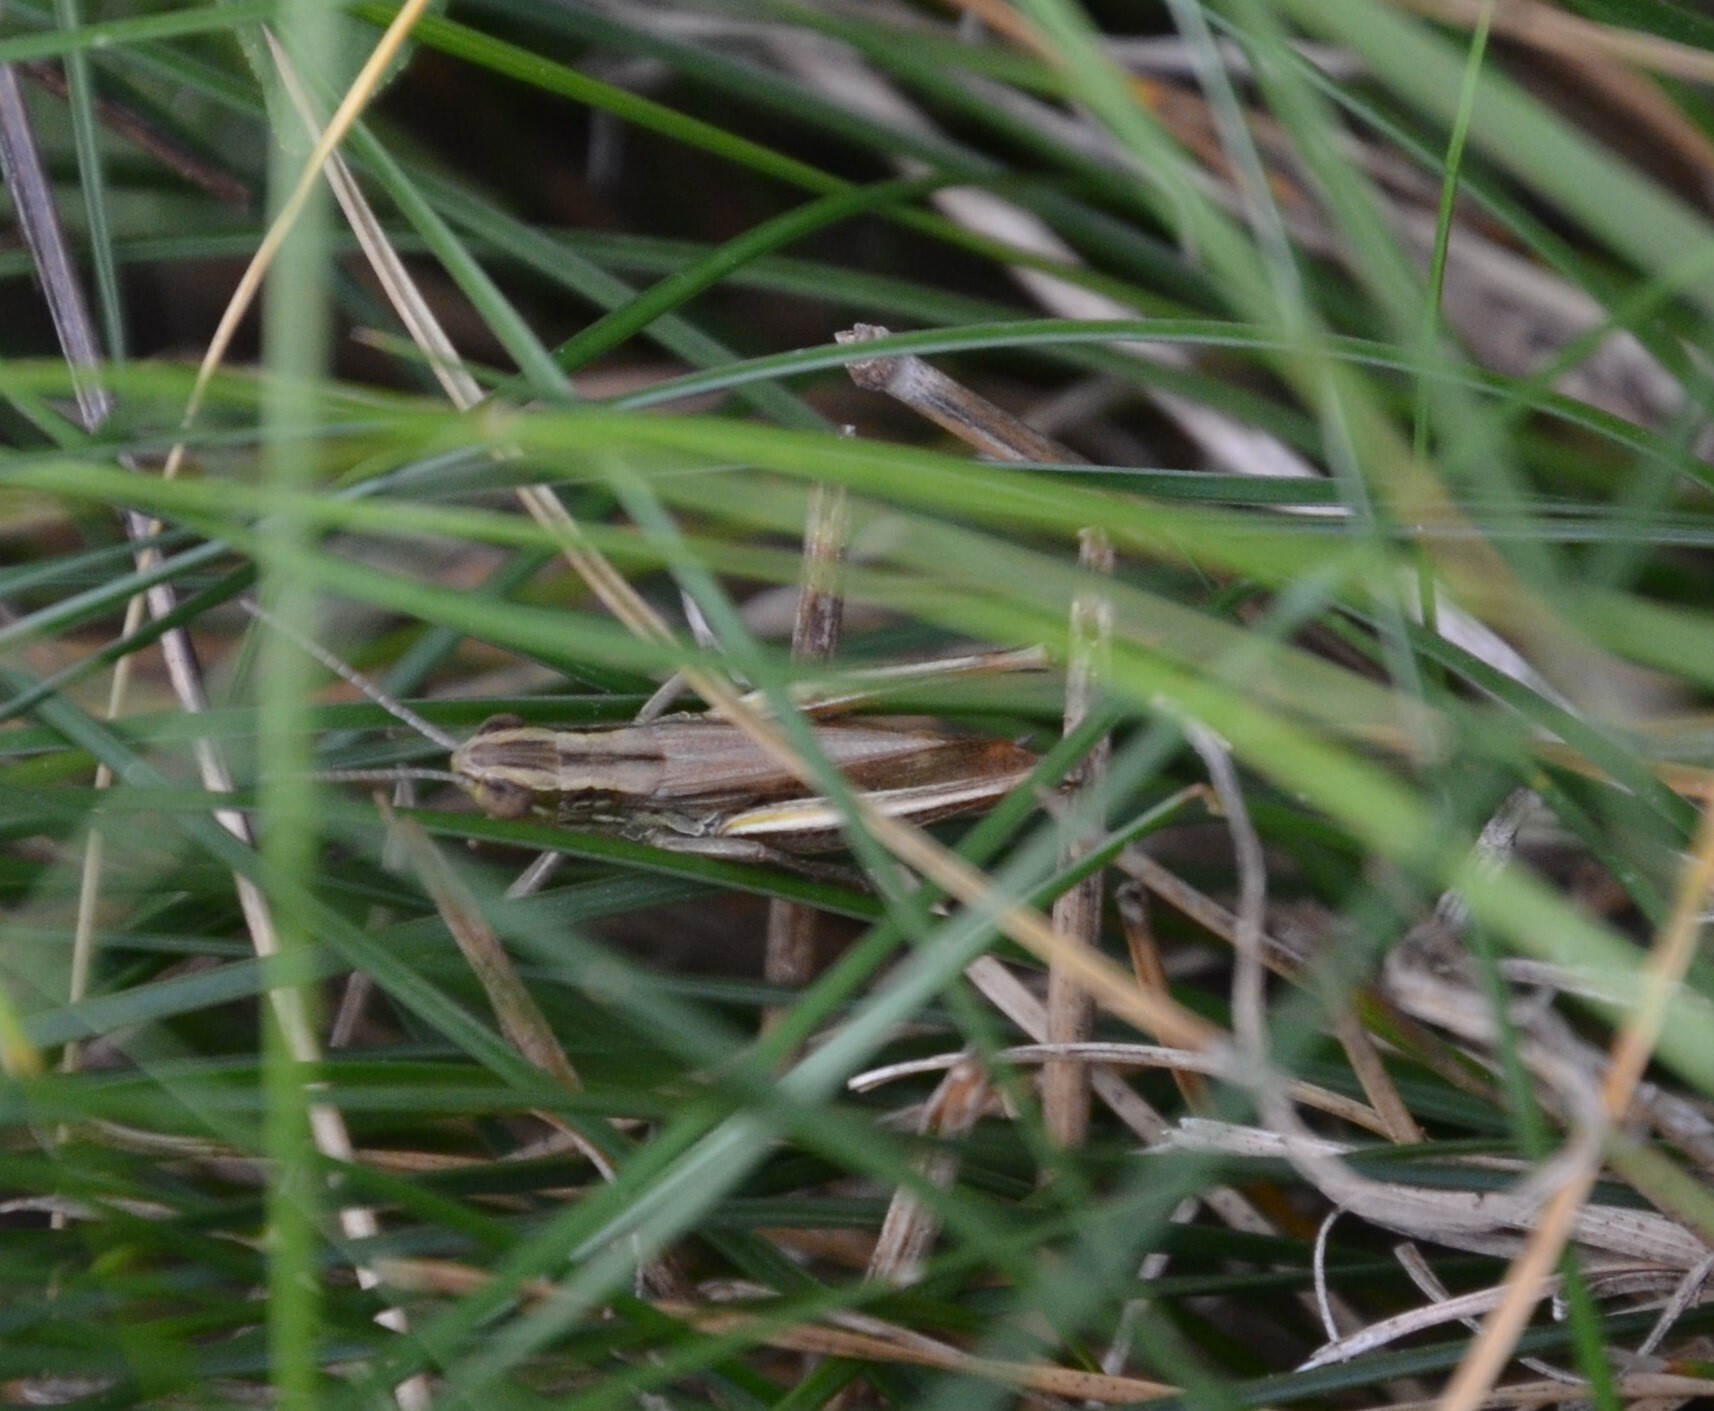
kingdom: Animalia
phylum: Arthropoda
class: Insecta
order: Orthoptera
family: Acrididae
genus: Euchorthippus
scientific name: Euchorthippus declivus
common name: Common straw grasshopper
